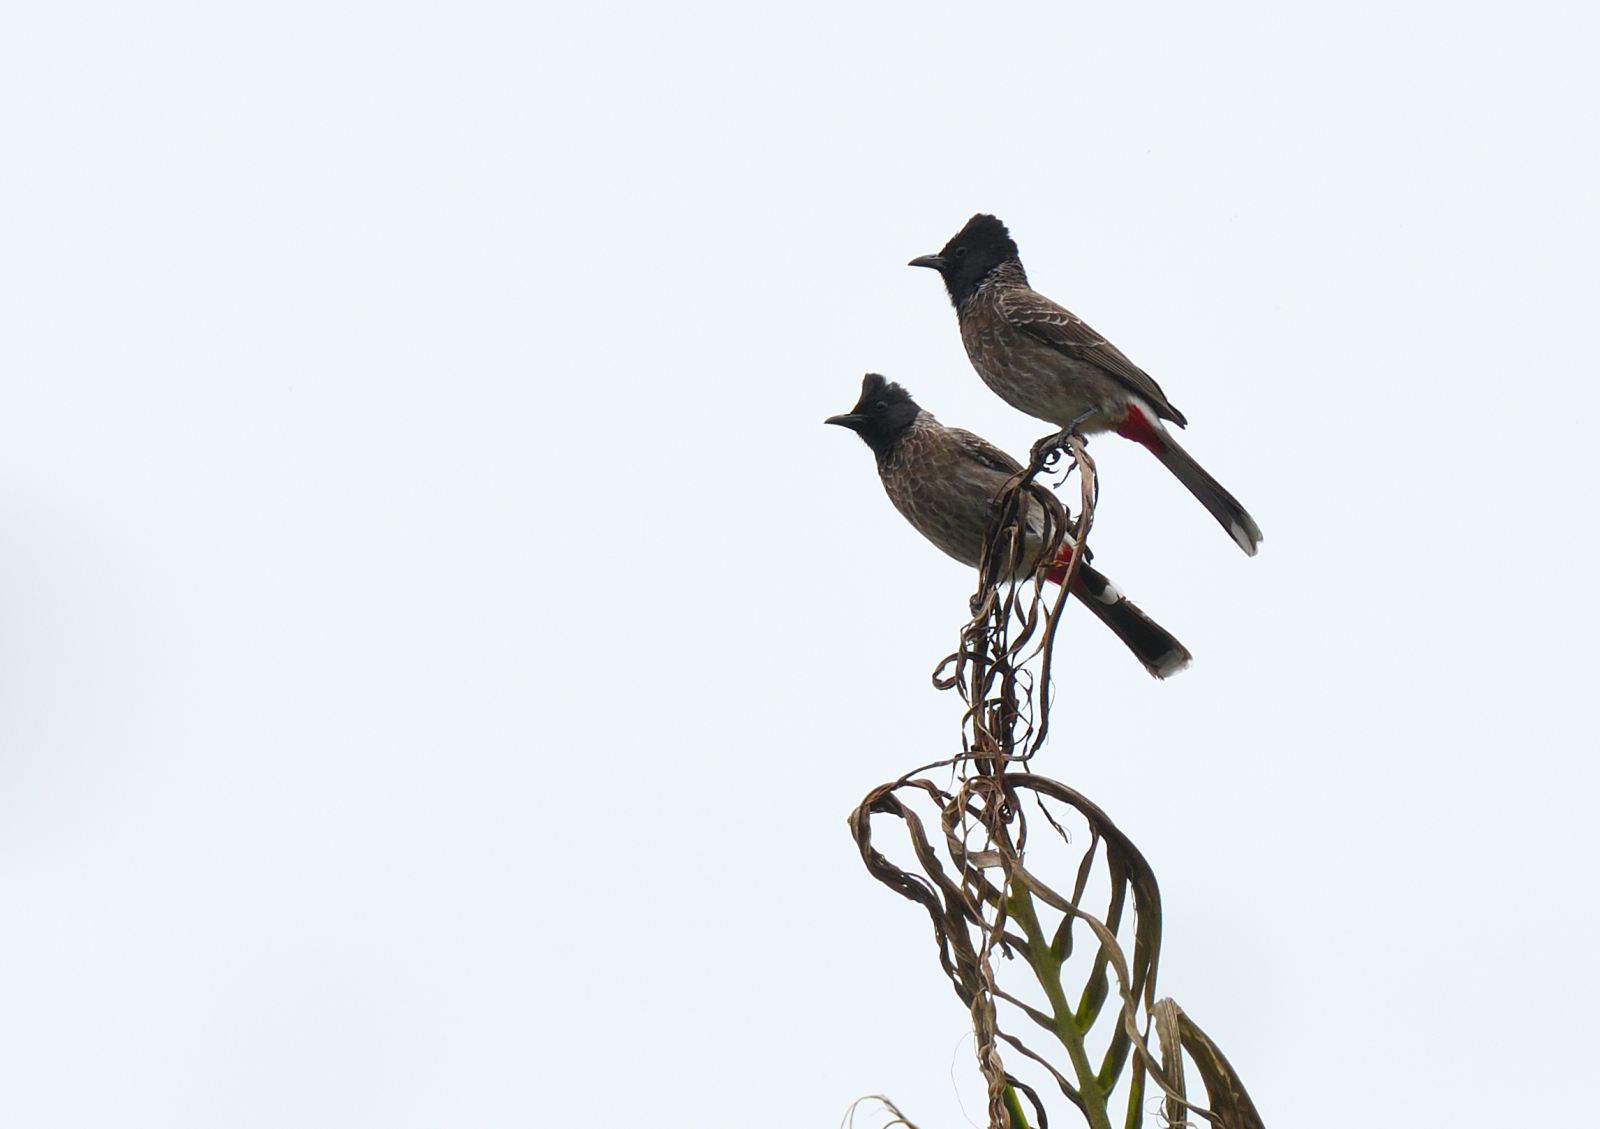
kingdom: Animalia
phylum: Chordata
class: Aves
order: Passeriformes
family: Pycnonotidae
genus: Pycnonotus
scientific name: Pycnonotus cafer
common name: Red-vented bulbul
